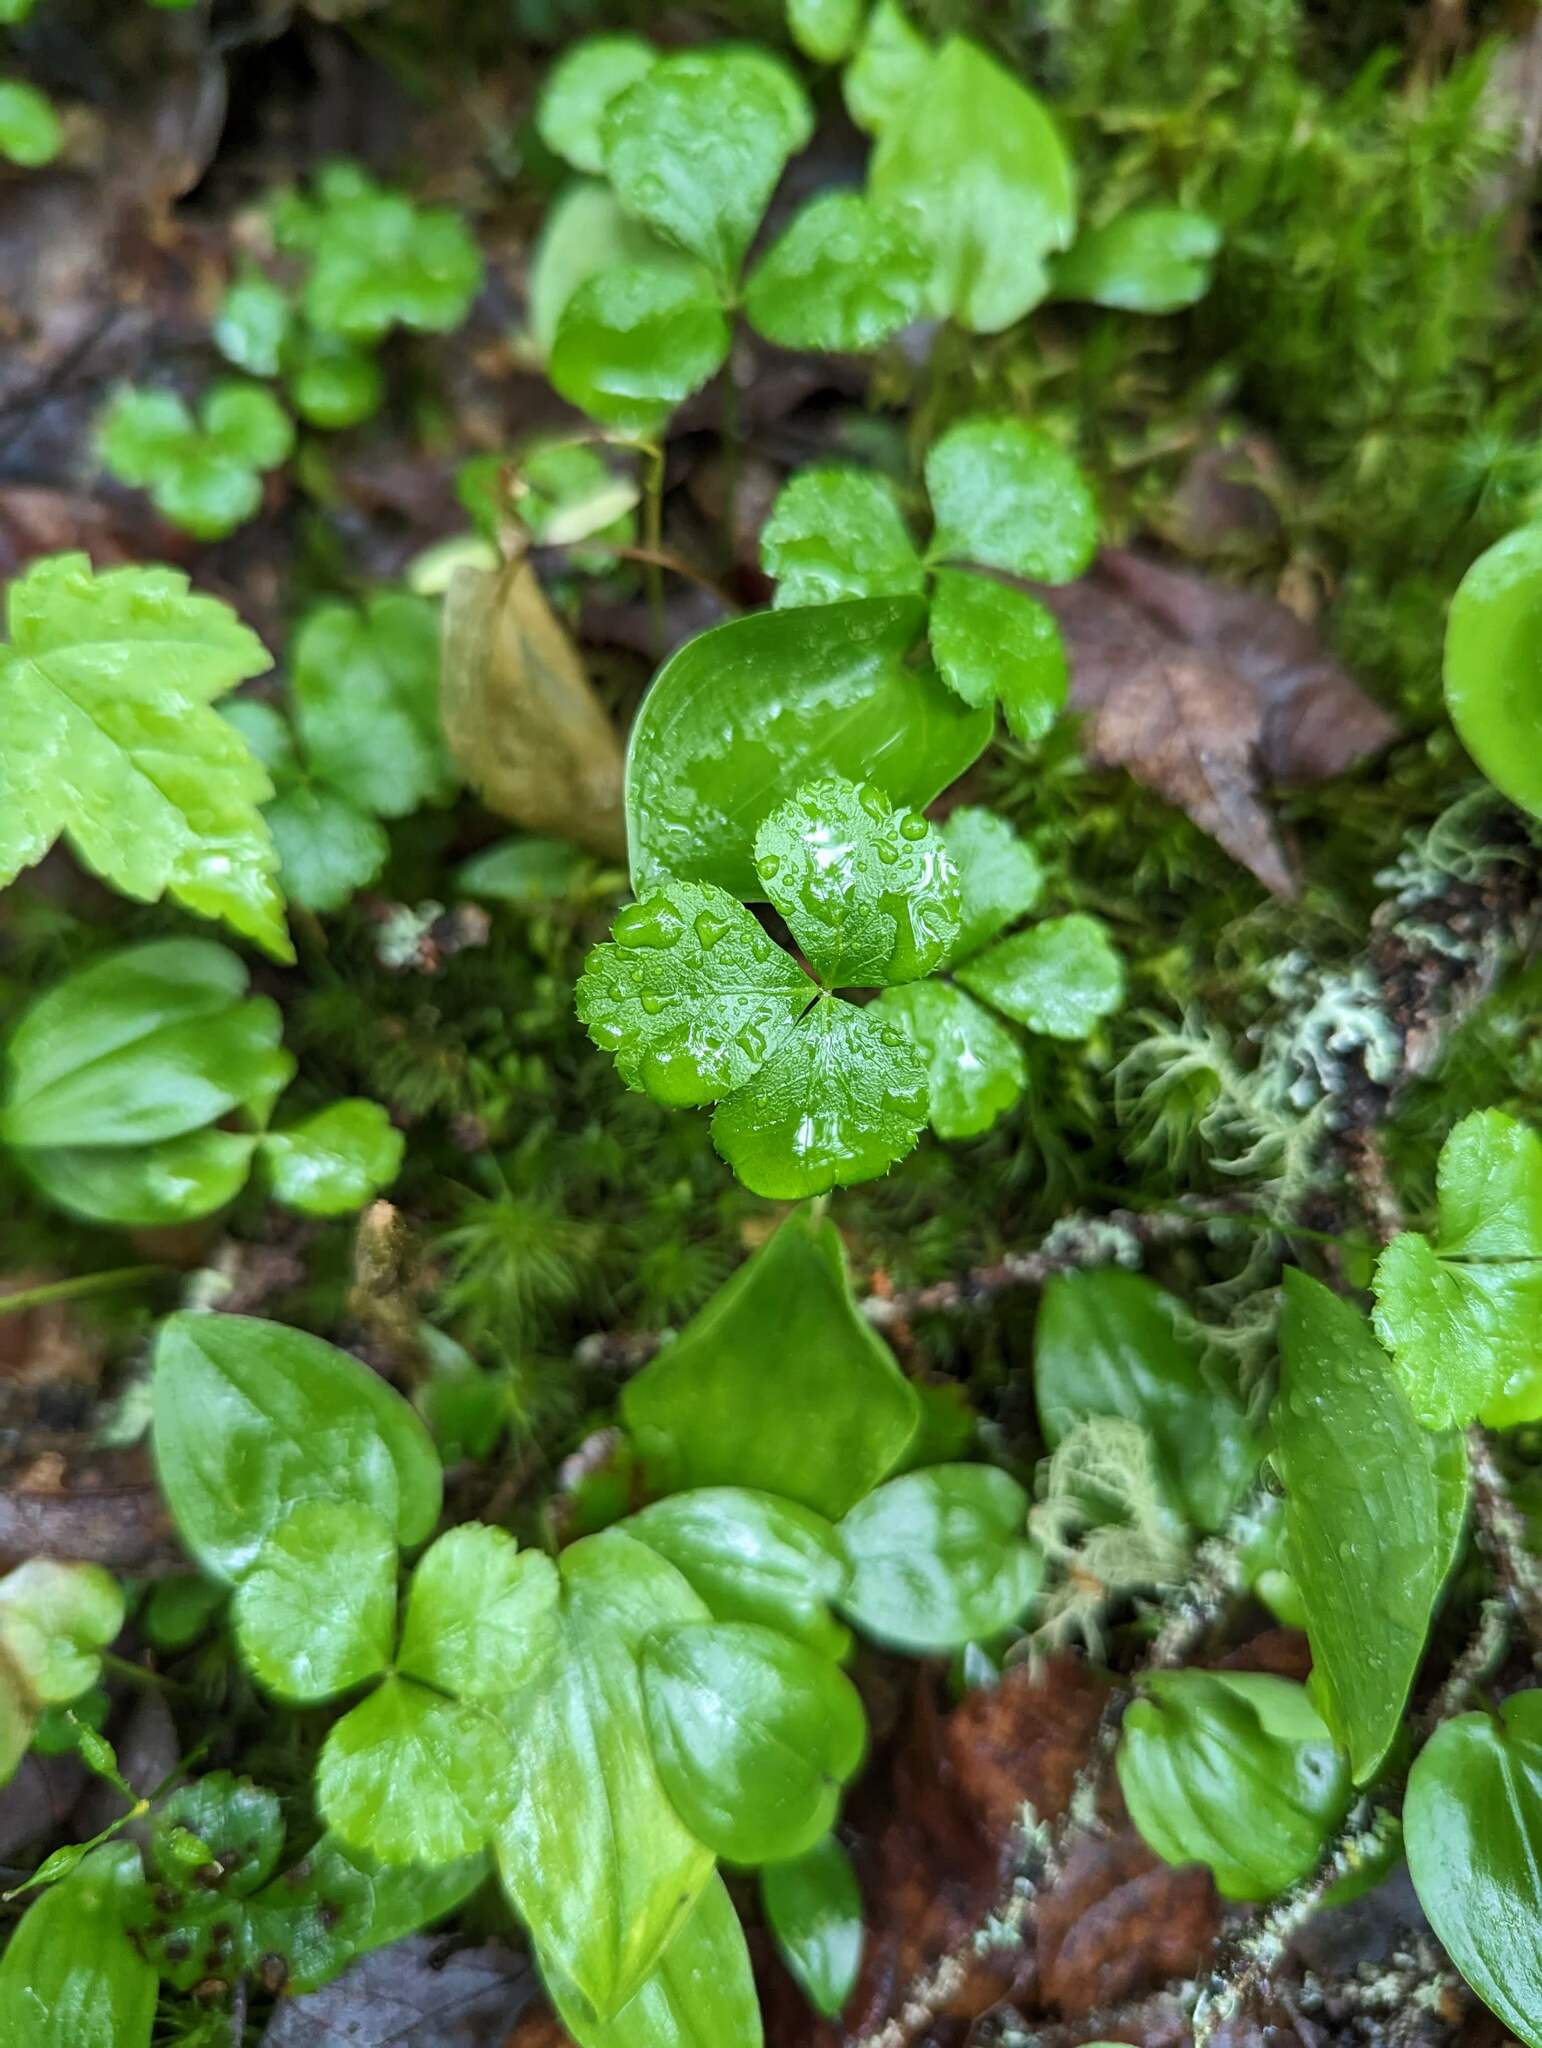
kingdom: Plantae
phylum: Tracheophyta
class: Magnoliopsida
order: Ranunculales
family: Ranunculaceae
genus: Coptis
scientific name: Coptis trifolia
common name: Canker-root
